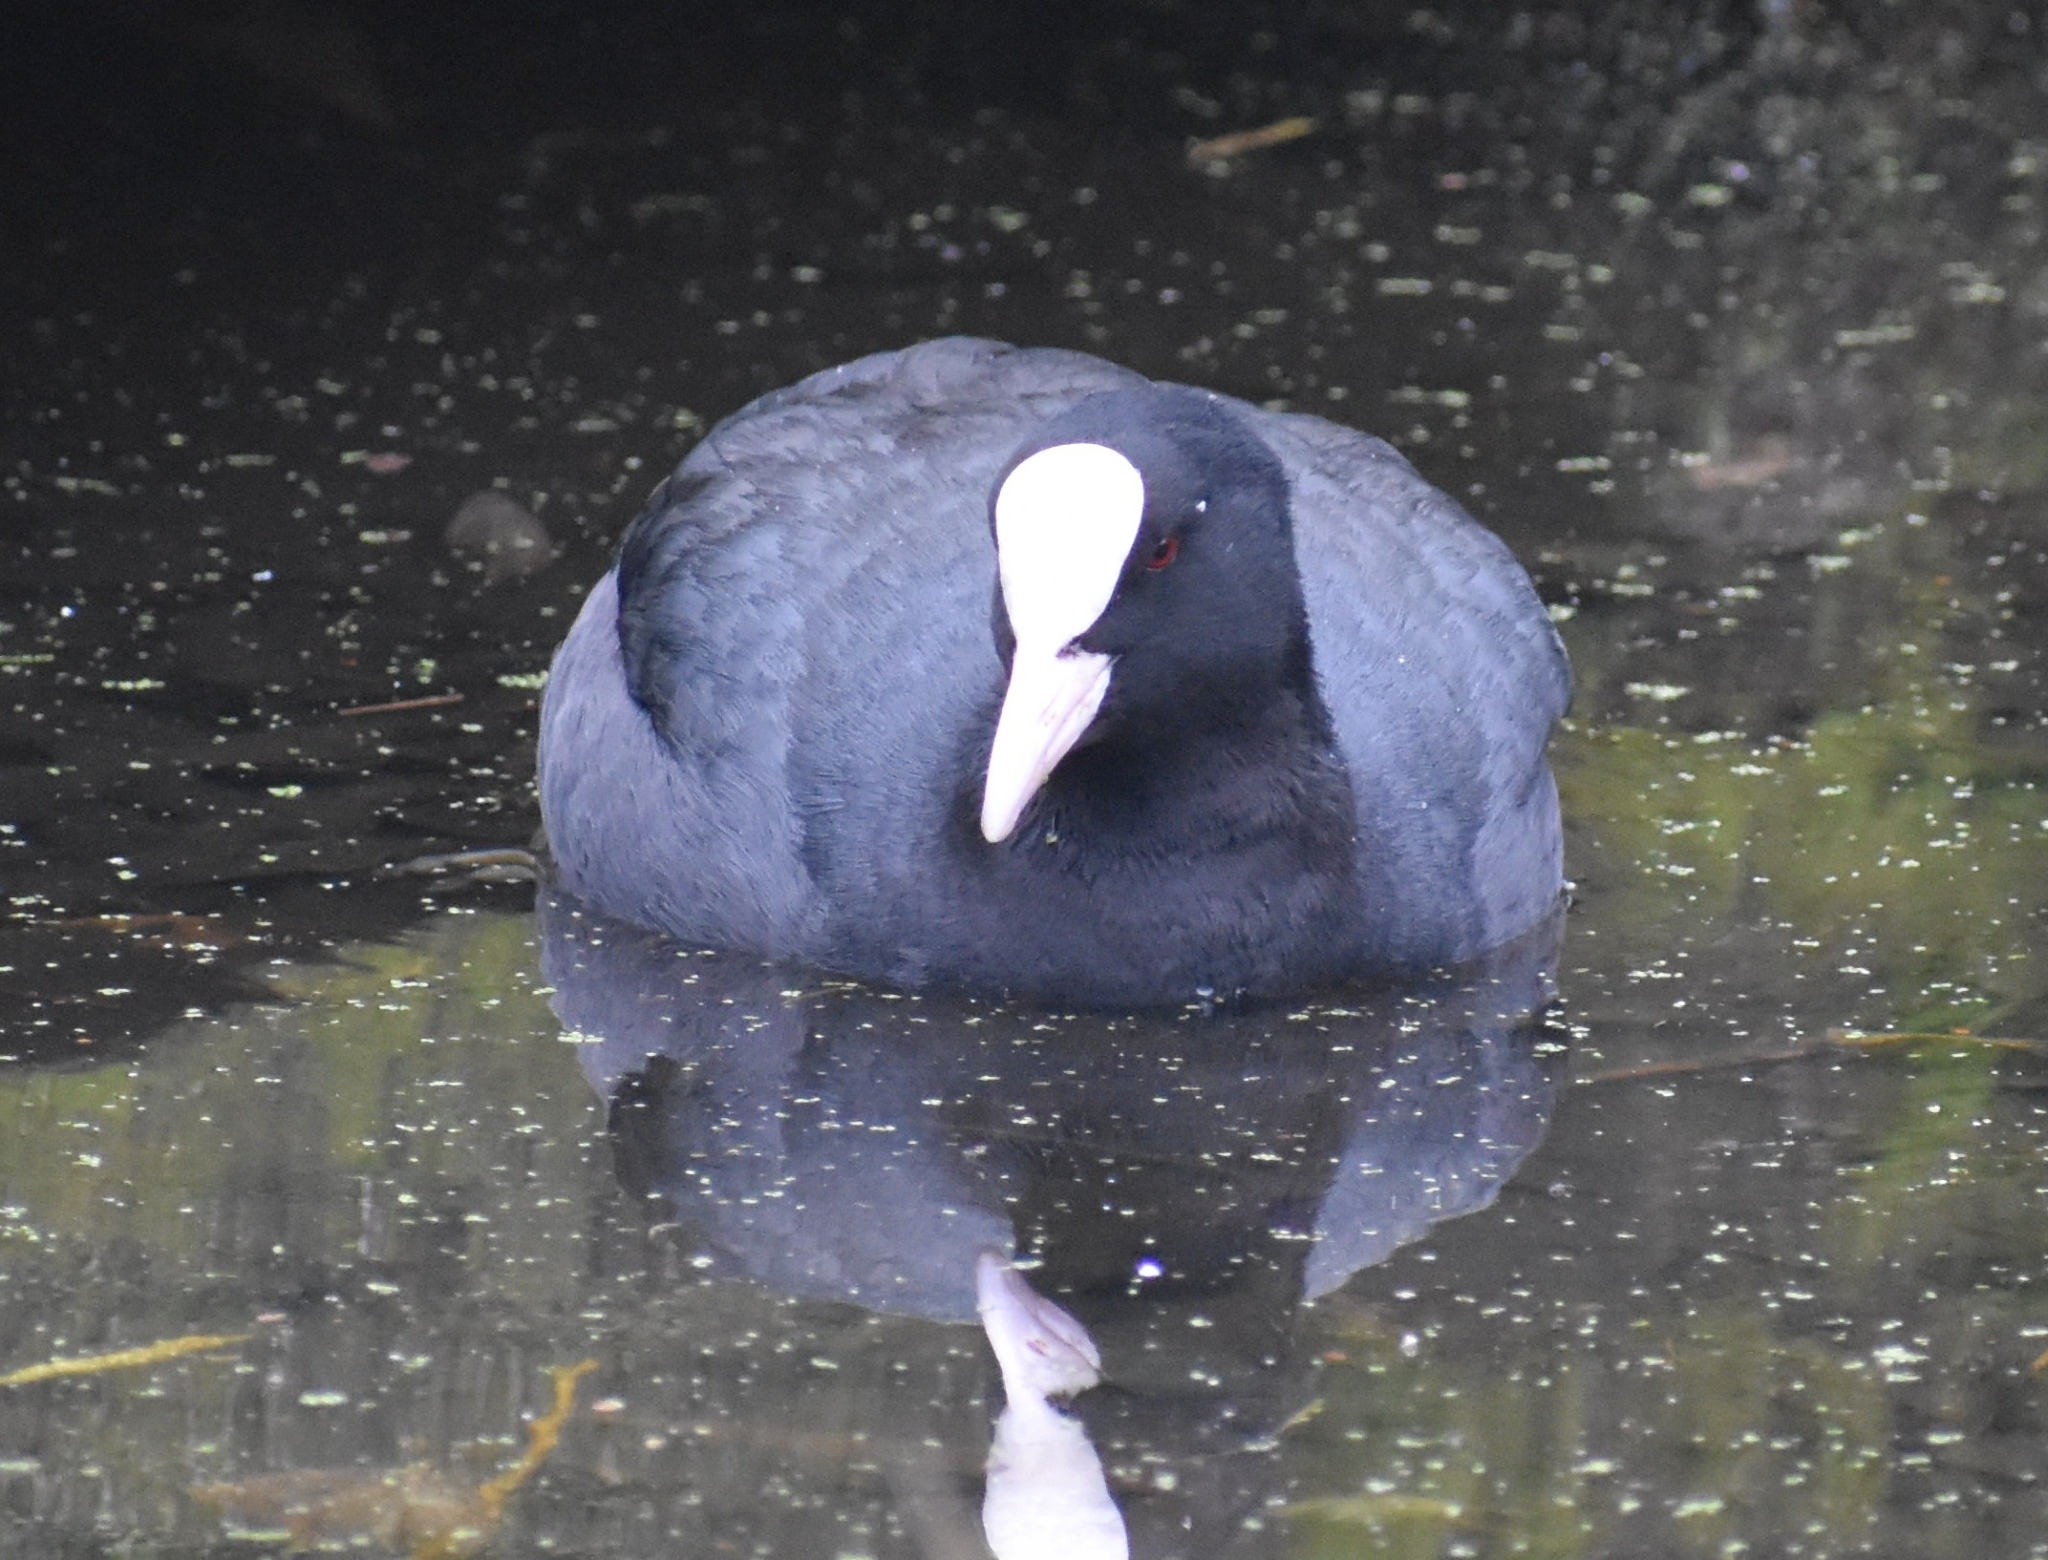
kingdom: Animalia
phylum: Chordata
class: Aves
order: Gruiformes
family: Rallidae
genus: Fulica
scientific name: Fulica atra
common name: Eurasian coot
